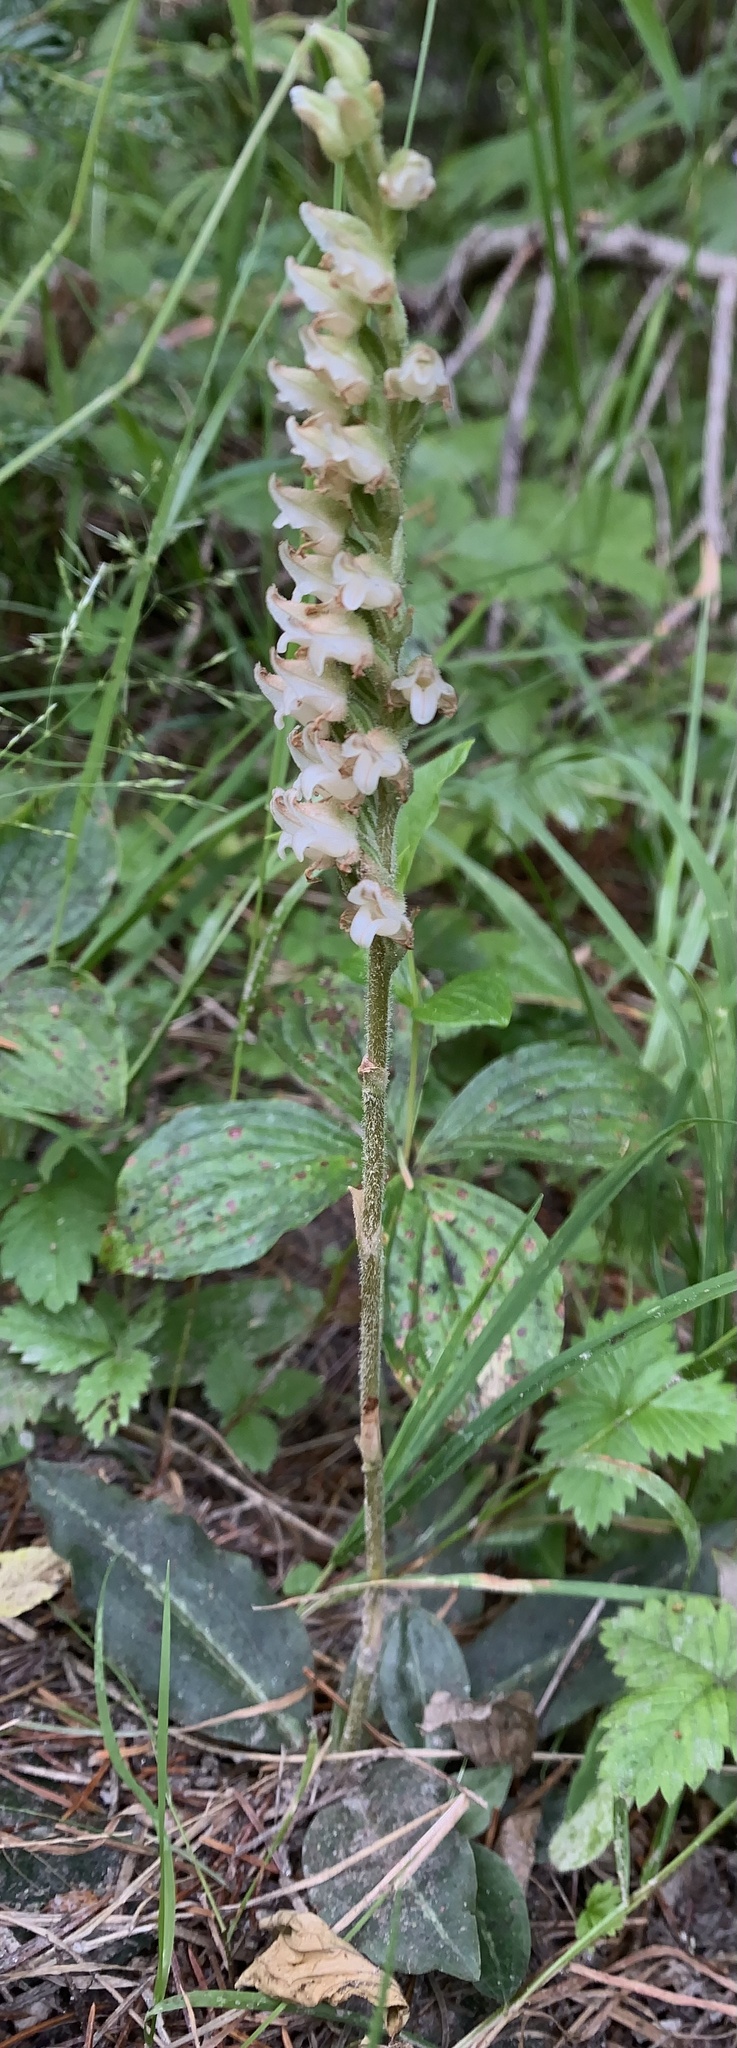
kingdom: Plantae
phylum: Tracheophyta
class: Liliopsida
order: Asparagales
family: Orchidaceae
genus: Goodyera
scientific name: Goodyera oblongifolia
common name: Giant rattlesnake-plantain
